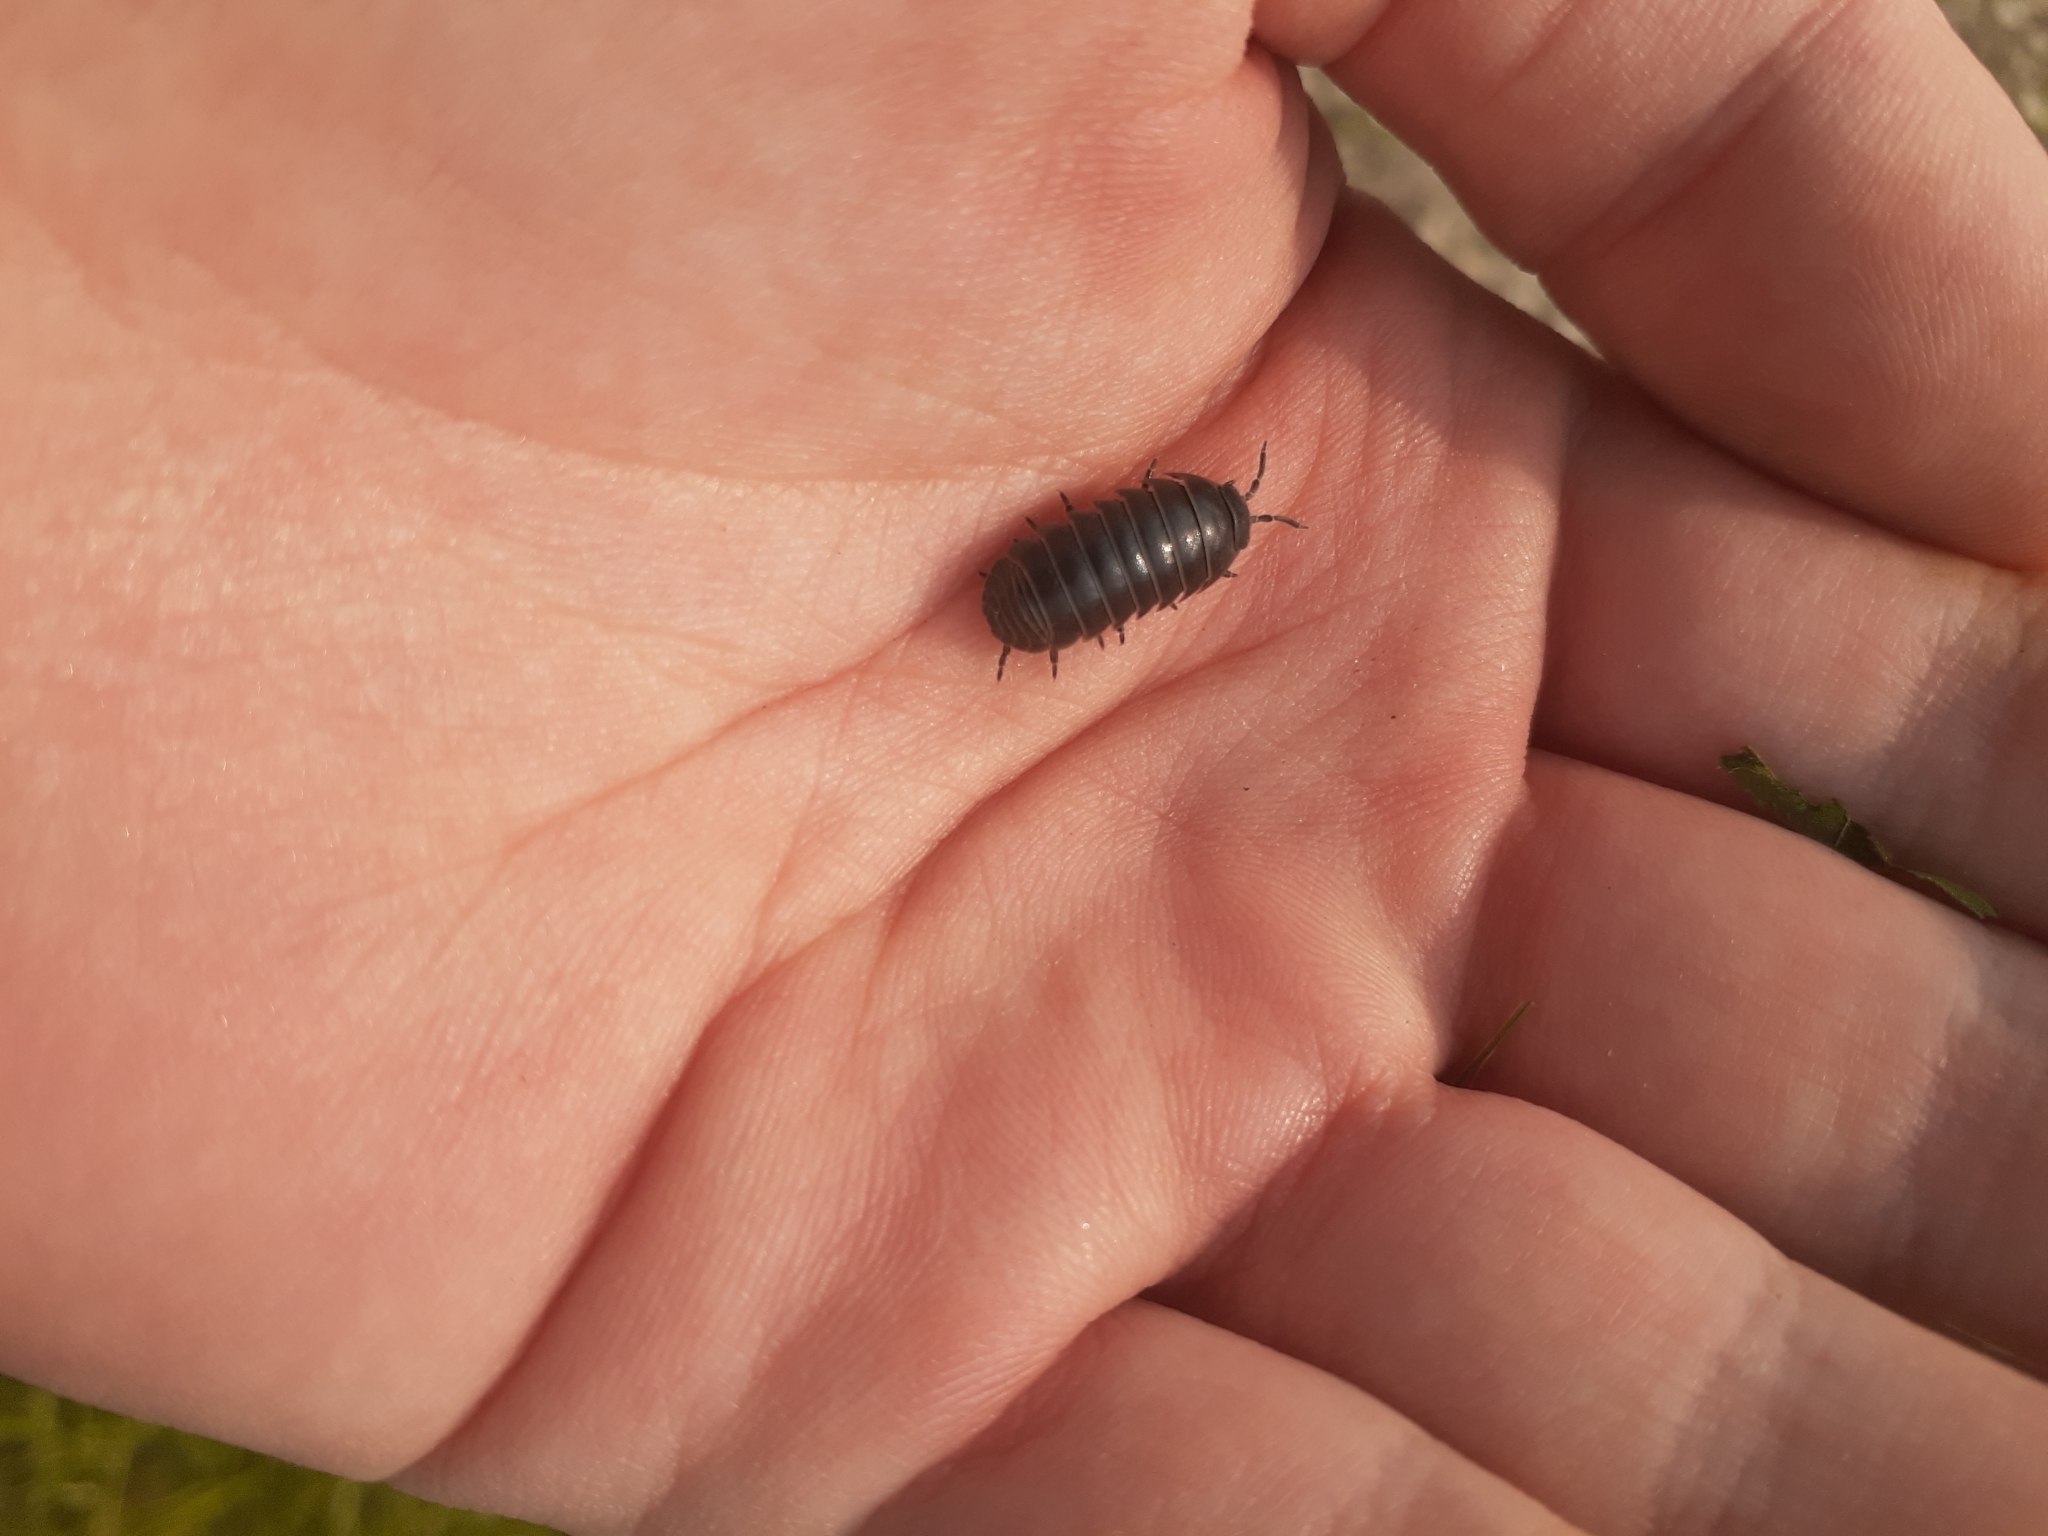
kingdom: Animalia
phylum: Arthropoda
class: Malacostraca
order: Isopoda
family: Armadillidiidae
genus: Armadillidium
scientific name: Armadillidium vulgare
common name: Common pill woodlouse
